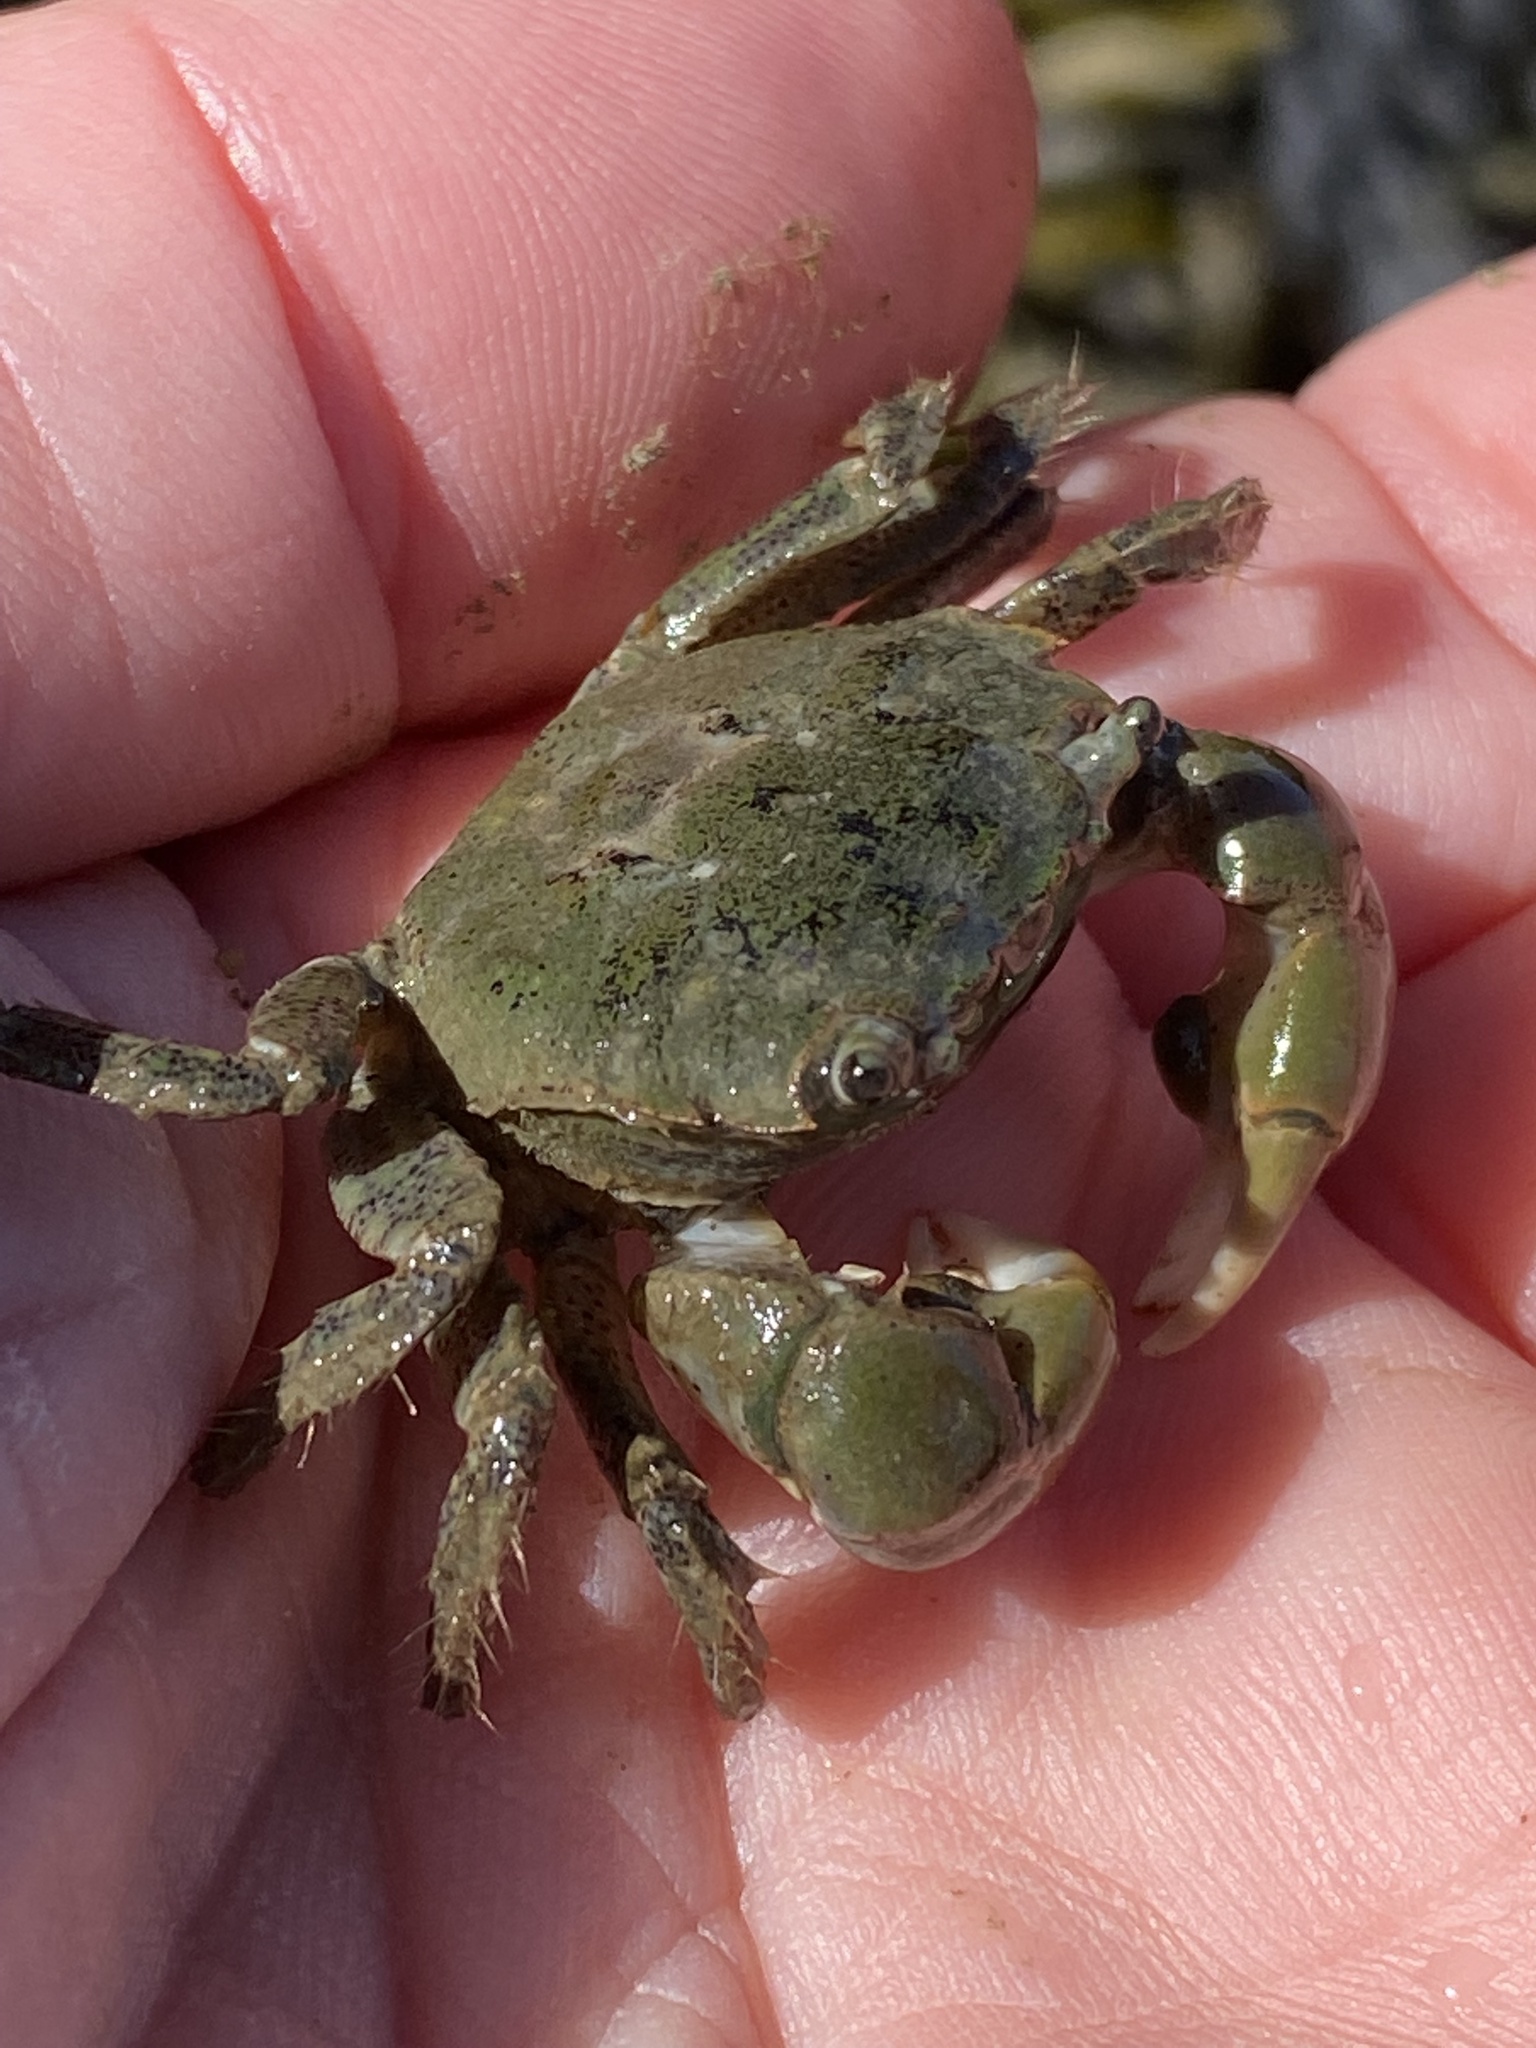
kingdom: Animalia
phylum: Arthropoda
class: Malacostraca
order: Decapoda
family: Varunidae
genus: Hemigrapsus
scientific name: Hemigrapsus oregonensis
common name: Yellow shore crab
